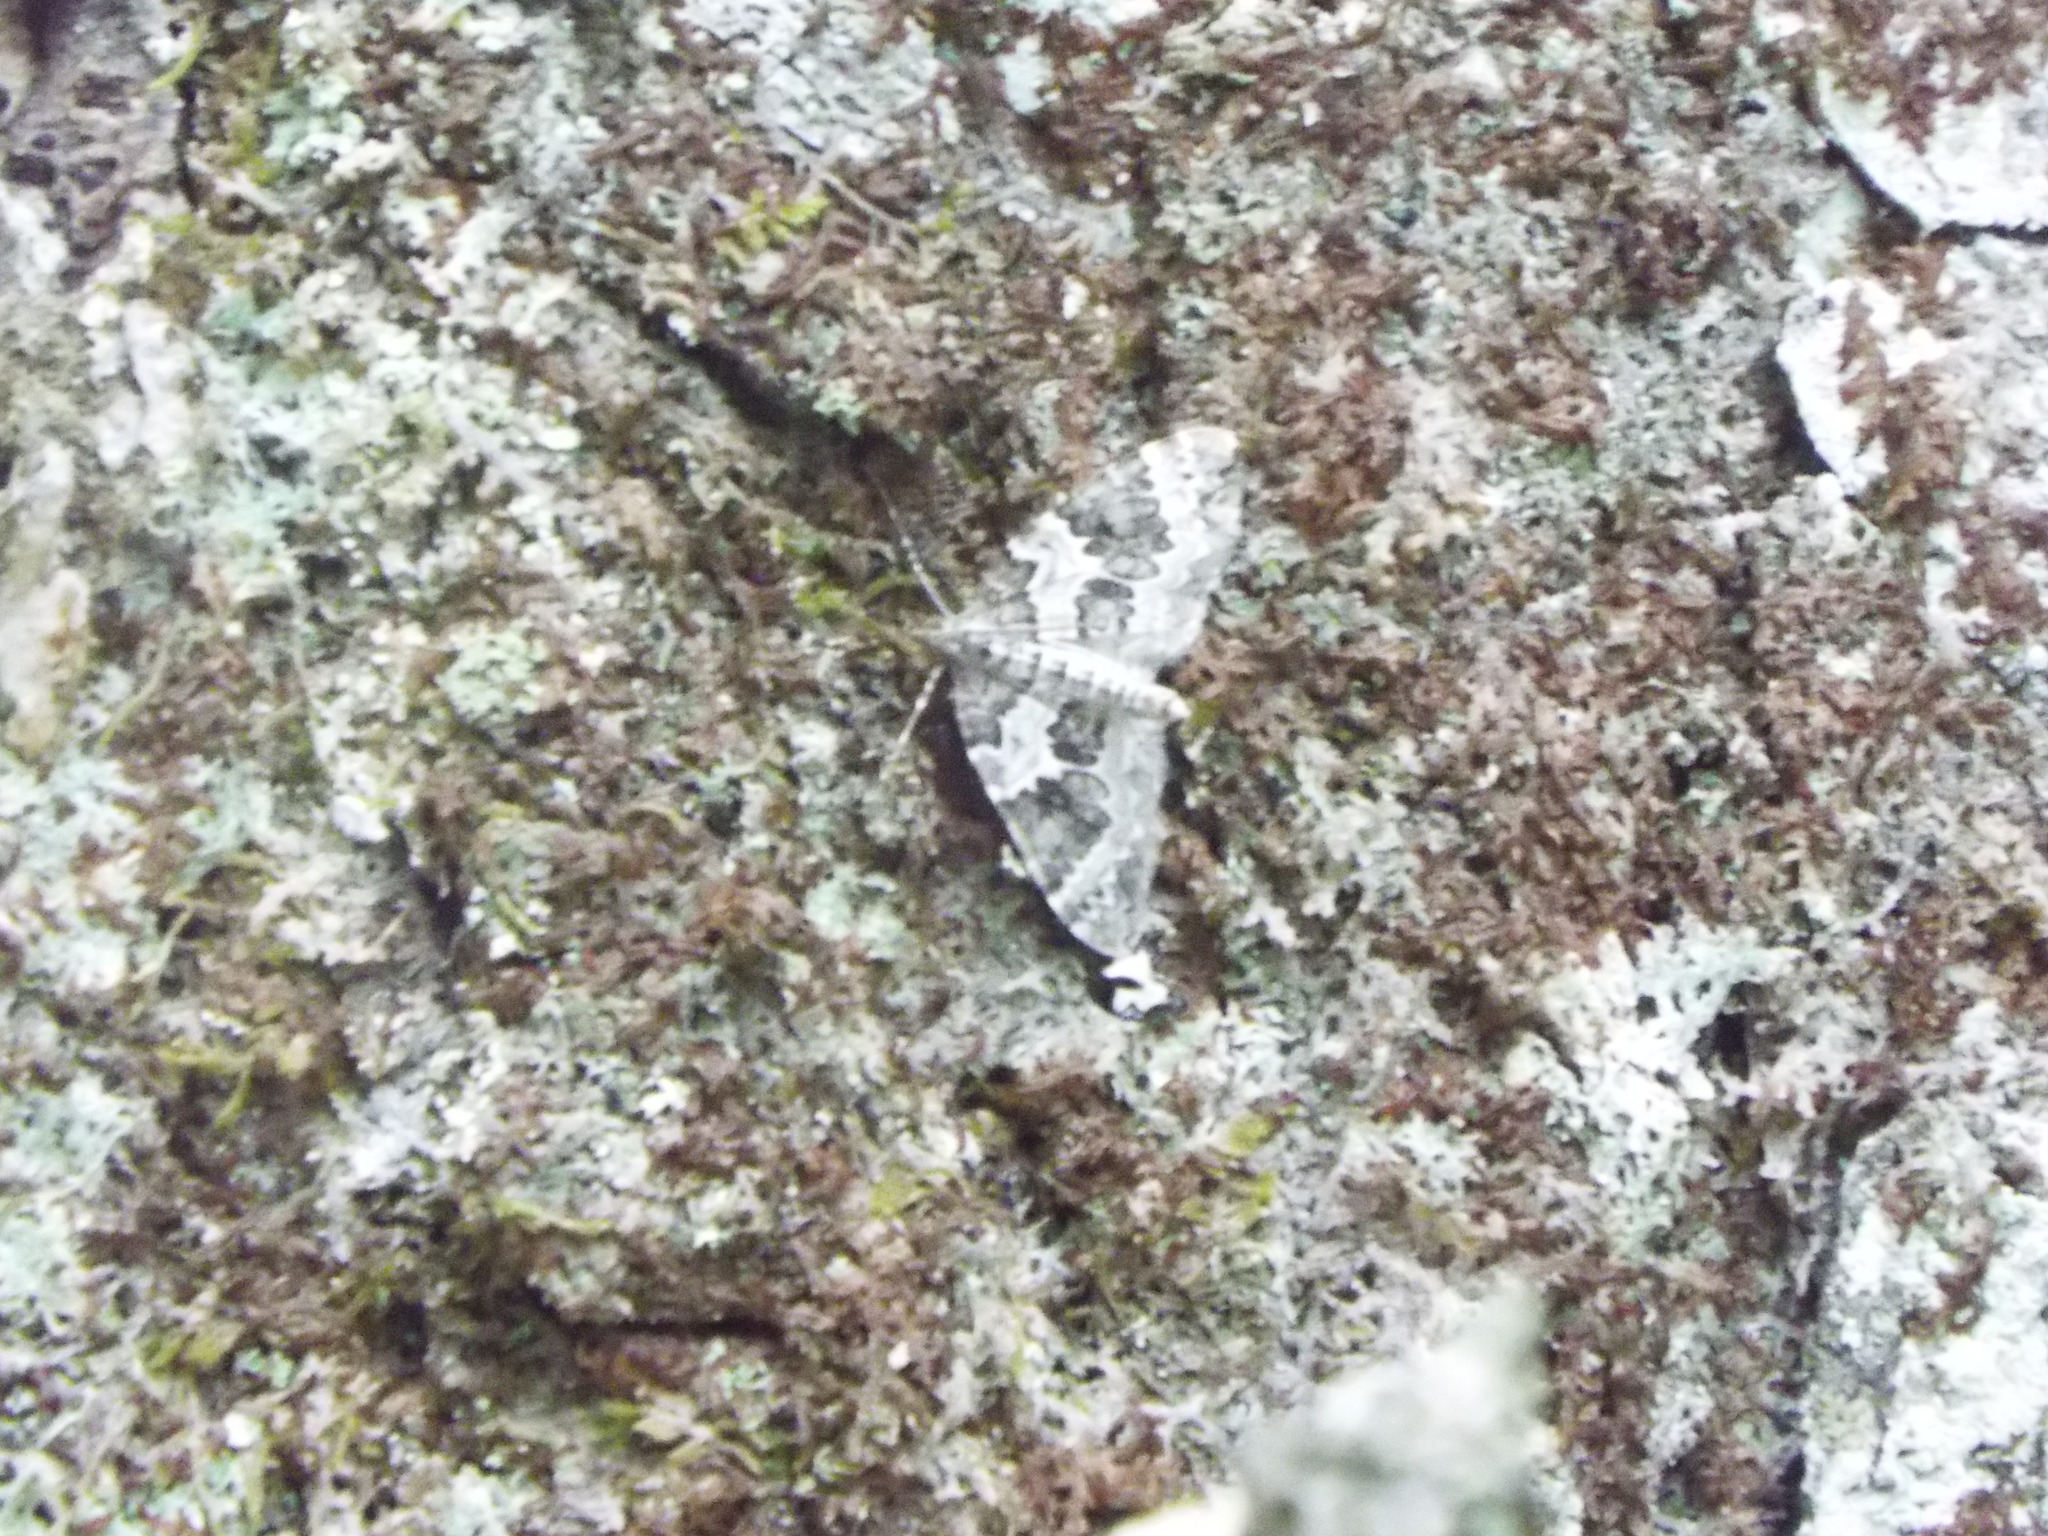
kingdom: Animalia
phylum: Arthropoda
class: Insecta
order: Lepidoptera
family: Geometridae
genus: Eulithis
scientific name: Eulithis explanata
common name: White eulithis
